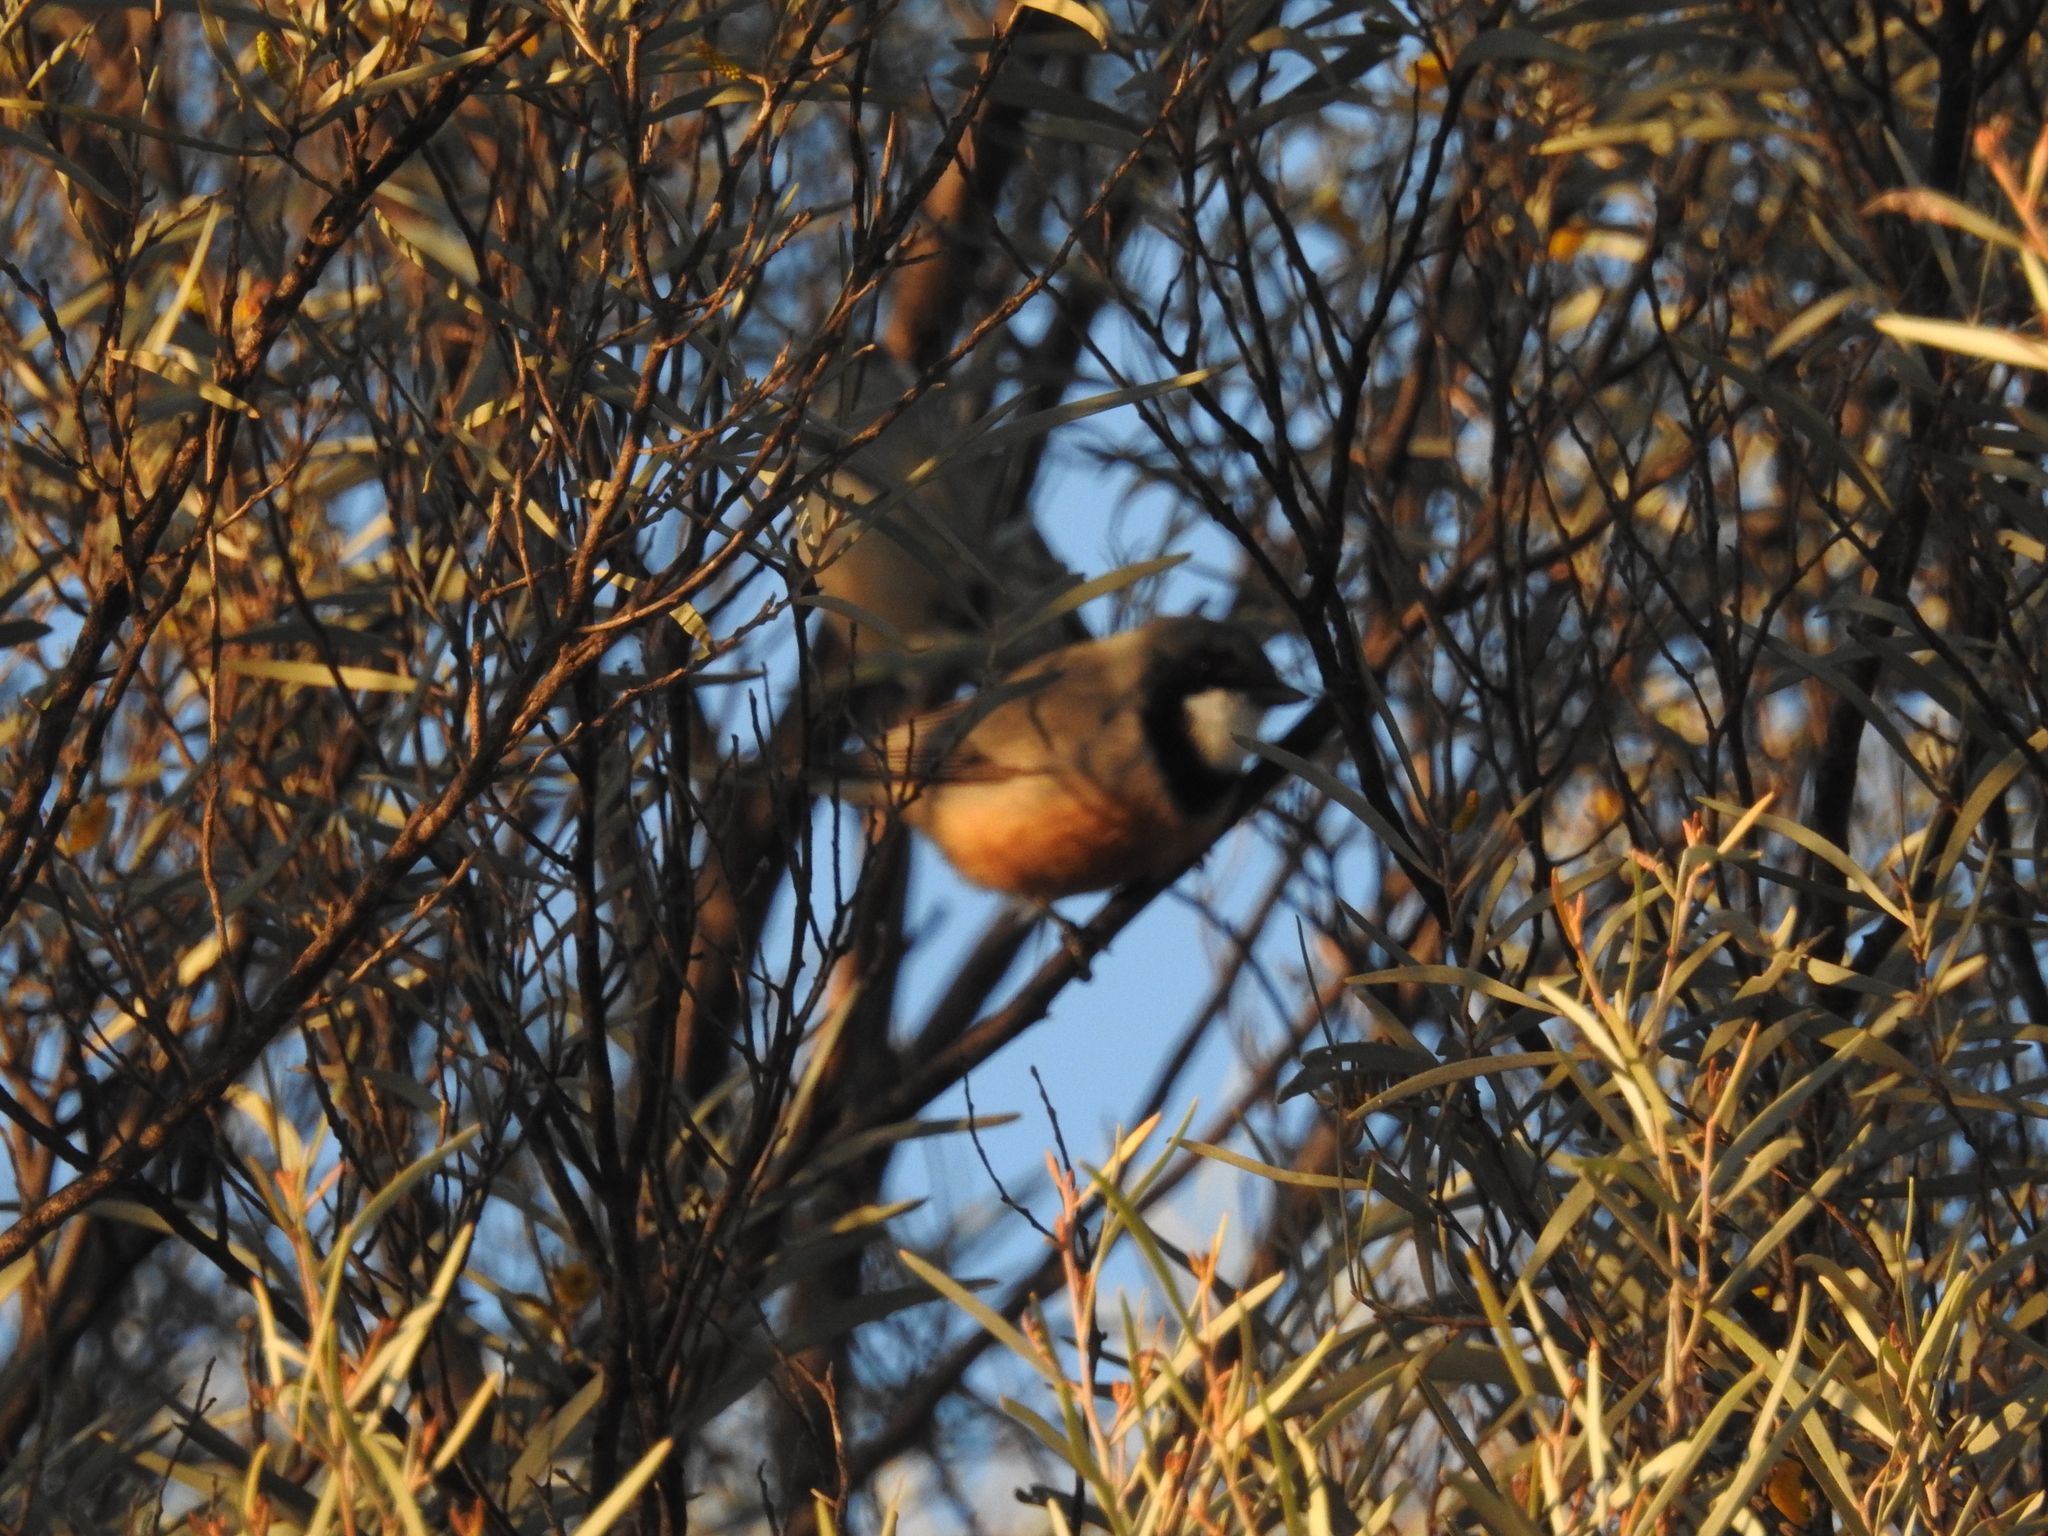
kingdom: Animalia
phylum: Chordata
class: Aves
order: Passeriformes
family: Pachycephalidae
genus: Pachycephala
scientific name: Pachycephala rufiventris
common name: Rufous whistler
